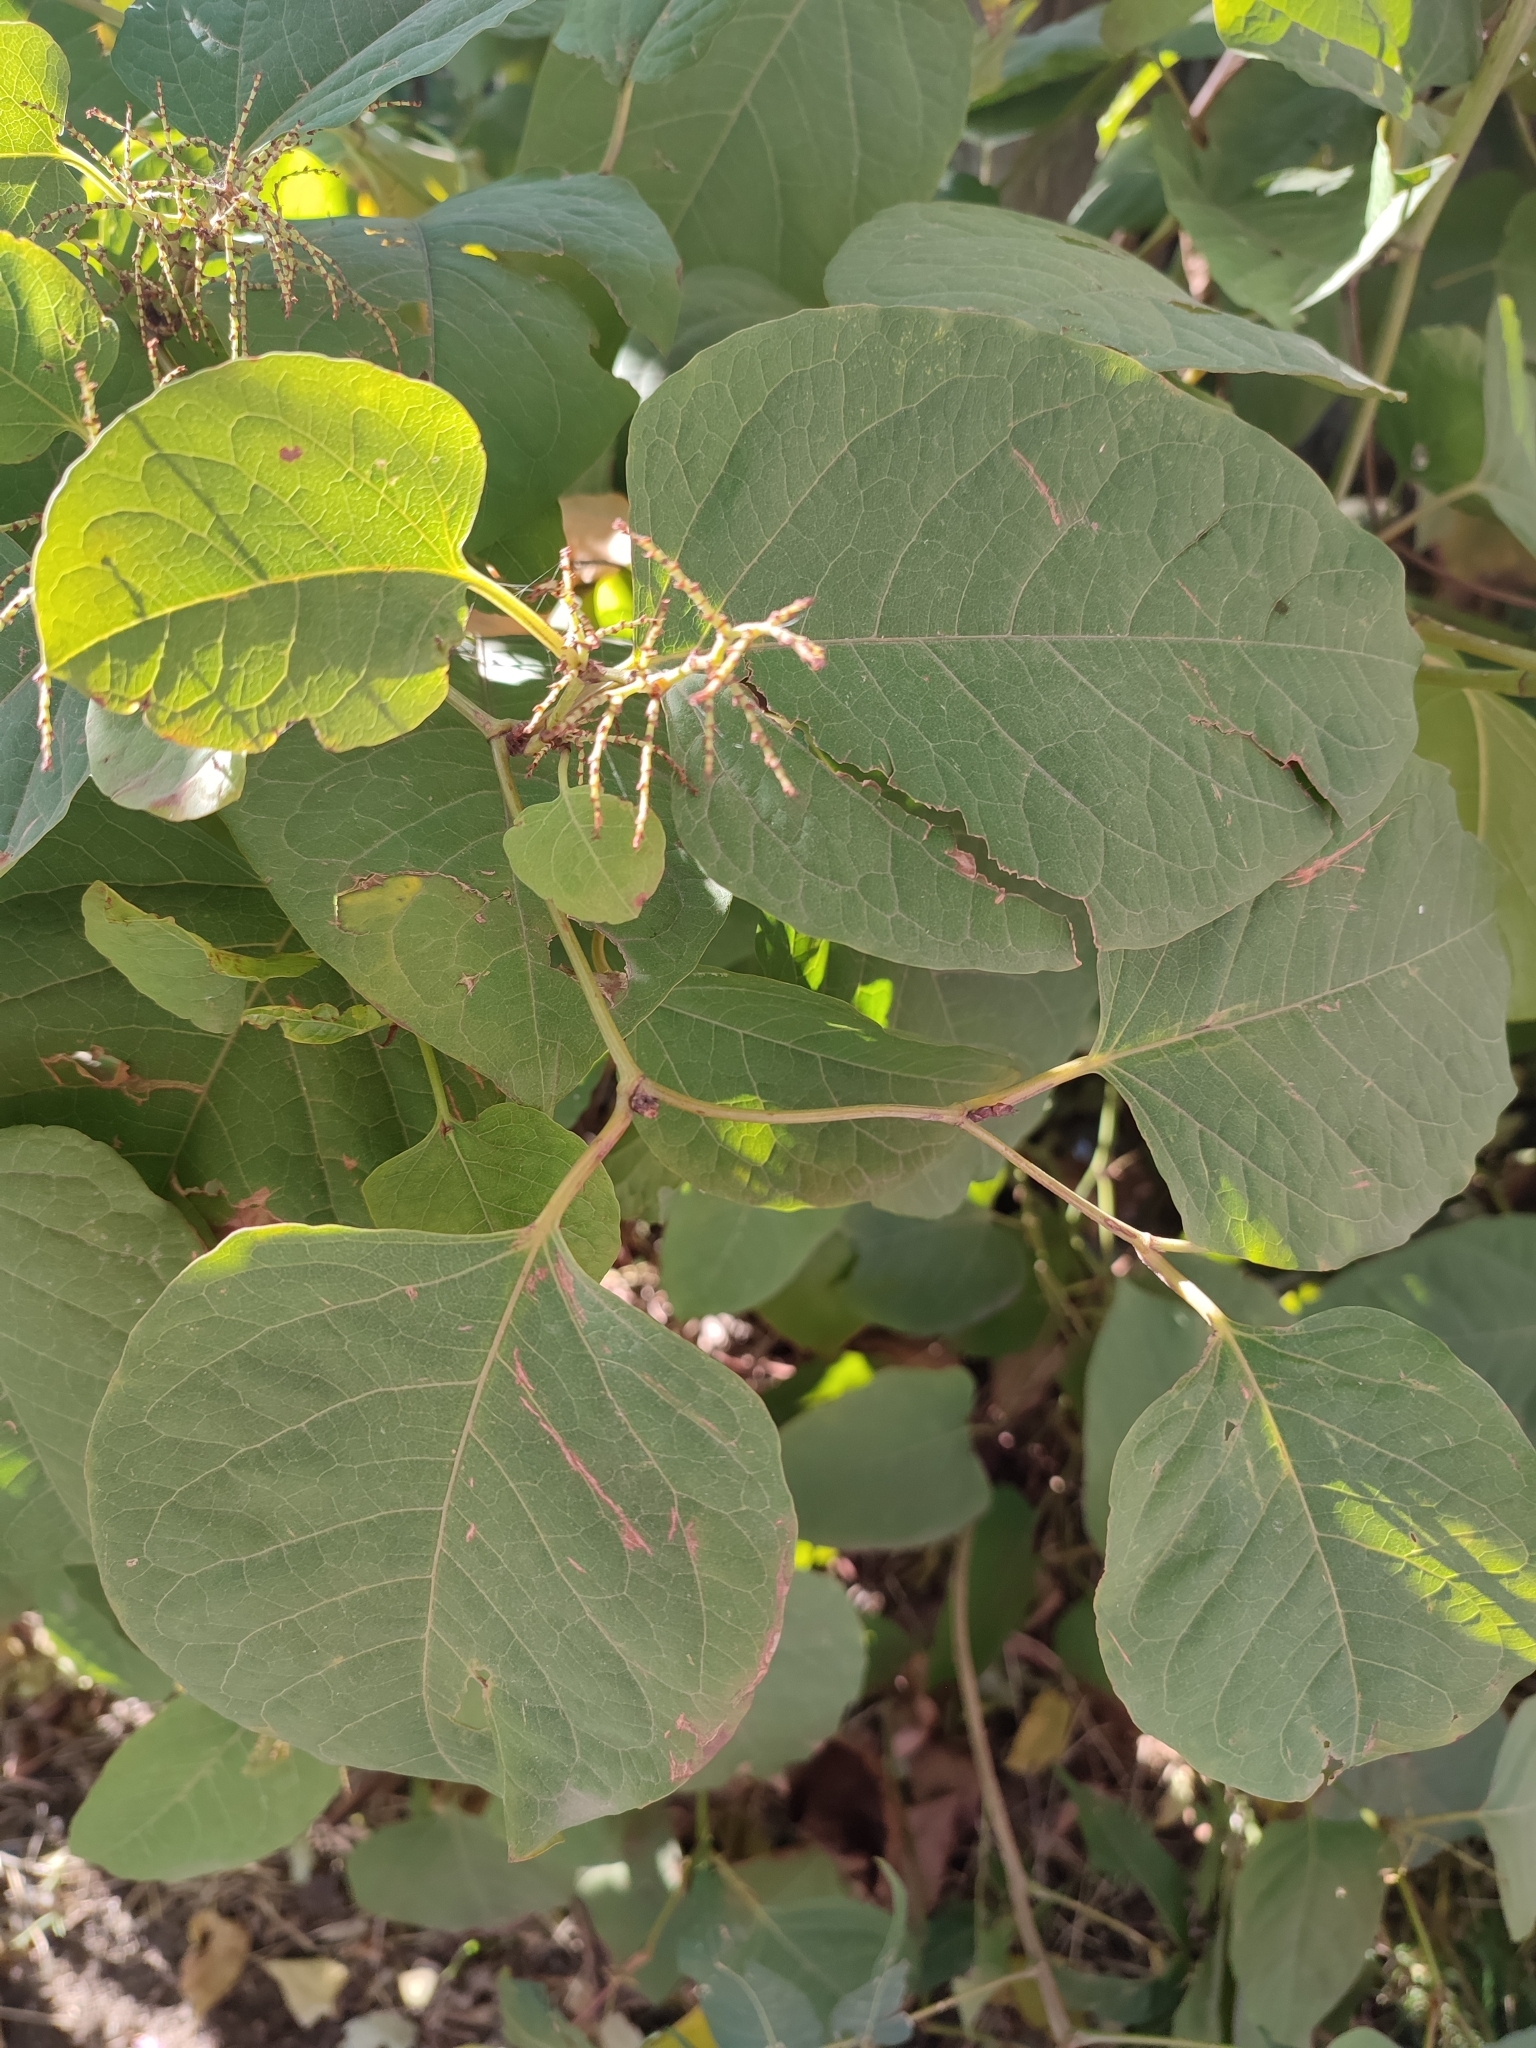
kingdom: Plantae
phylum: Tracheophyta
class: Magnoliopsida
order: Caryophyllales
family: Polygonaceae
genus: Reynoutria
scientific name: Reynoutria japonica
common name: Japanese knotweed
